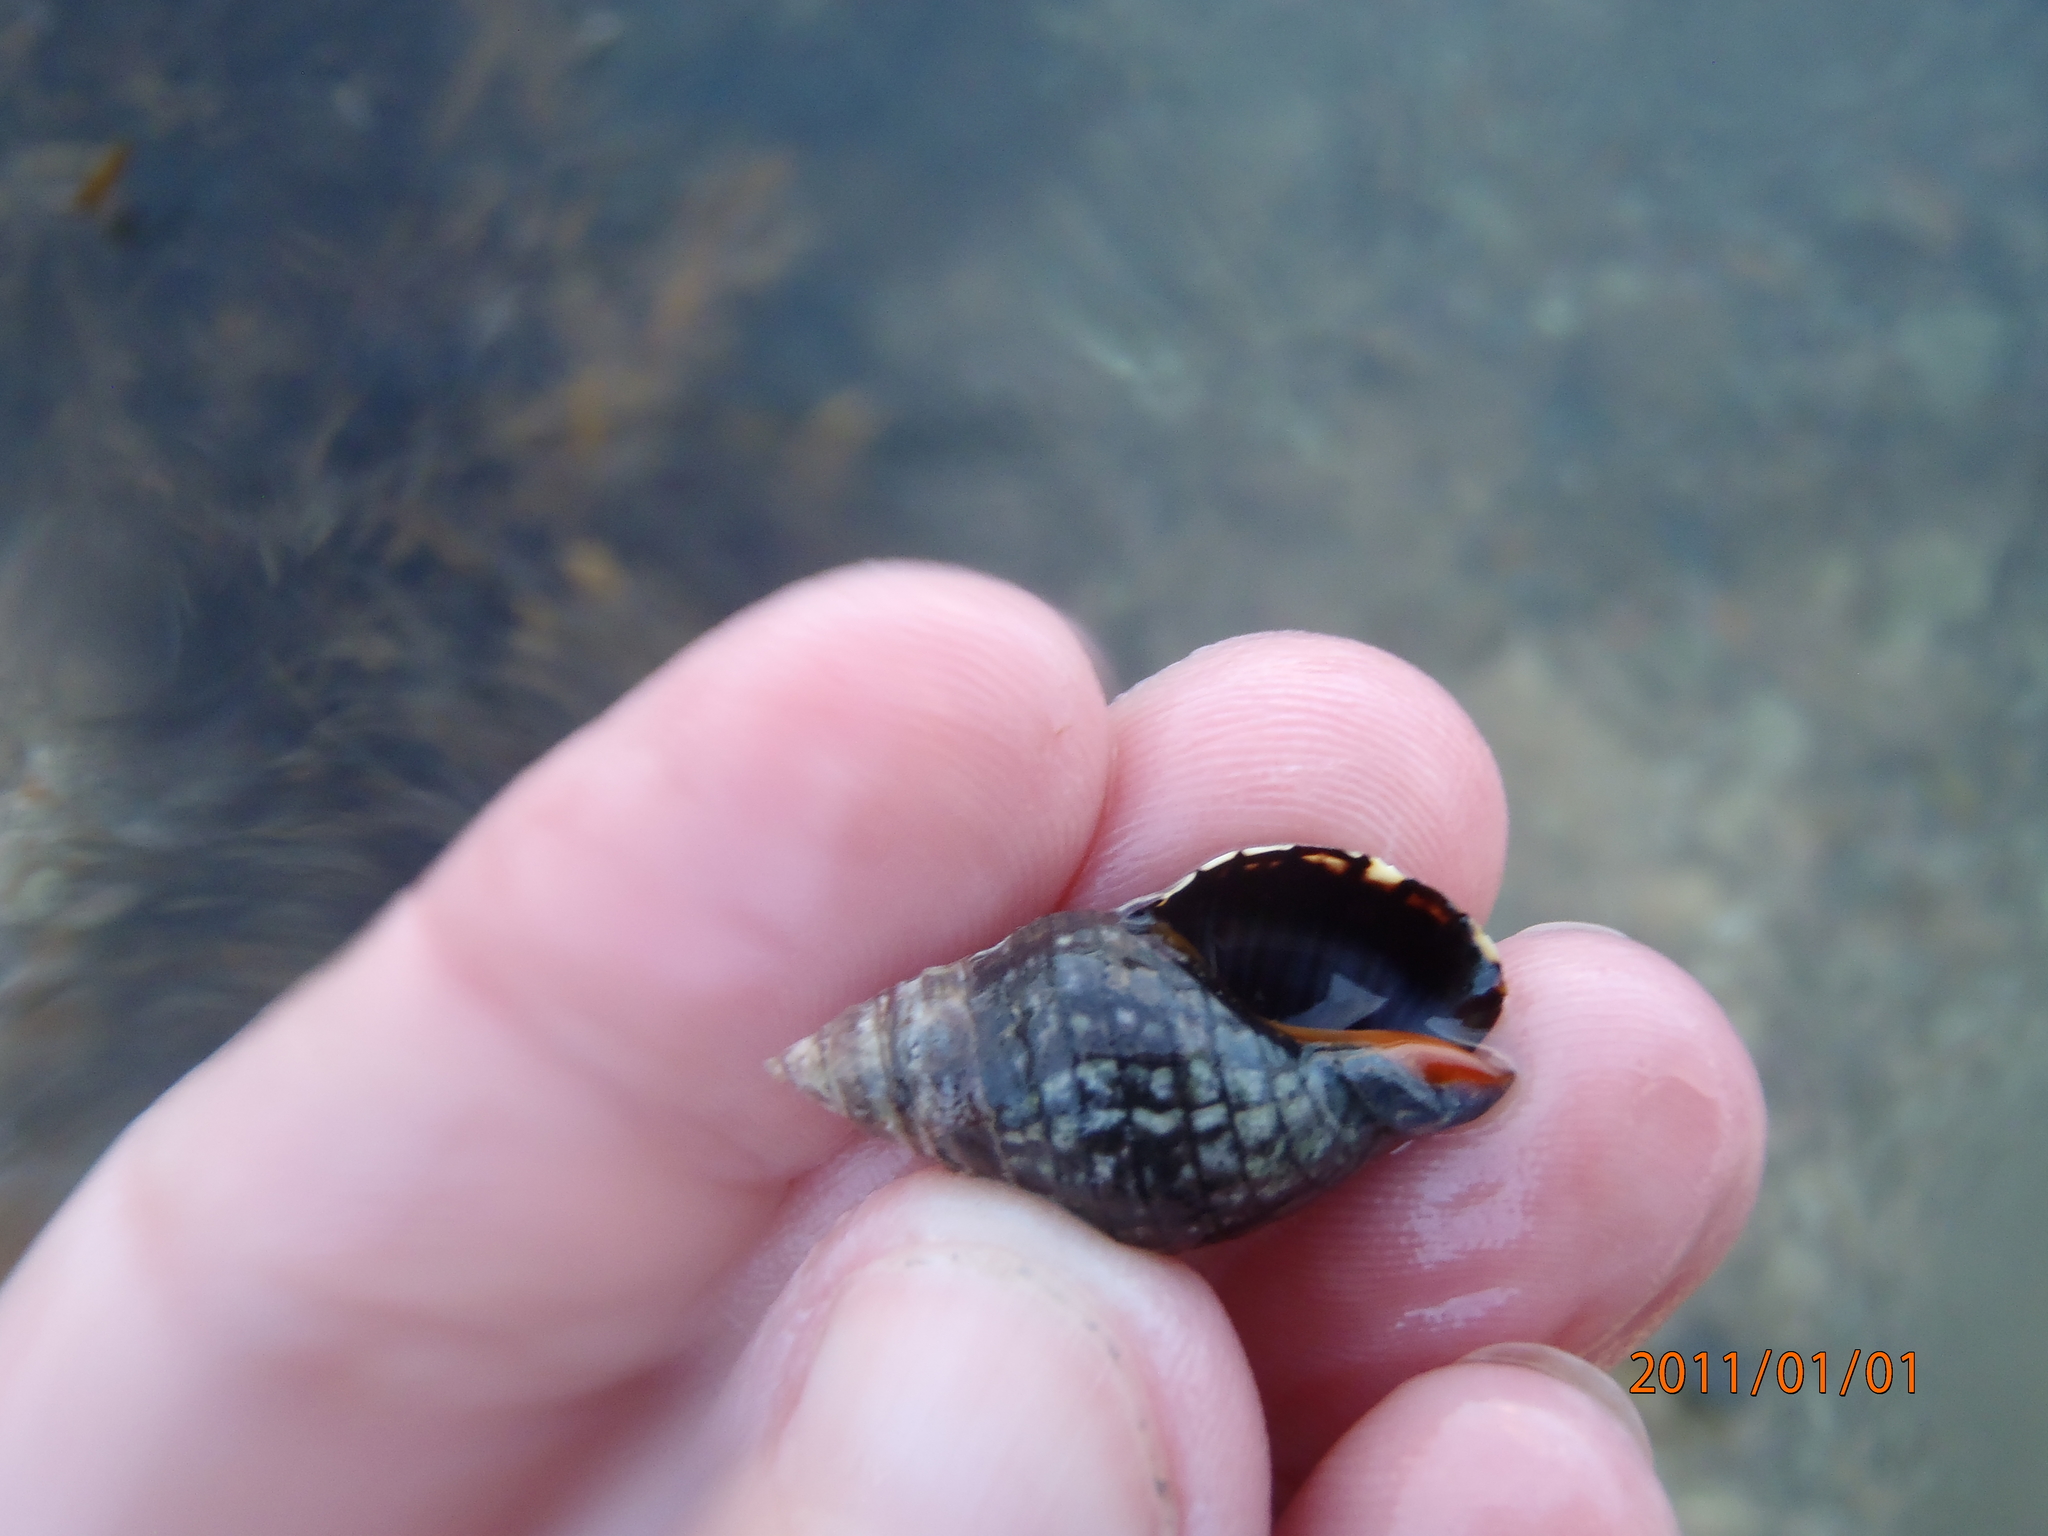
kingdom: Animalia
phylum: Mollusca
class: Gastropoda
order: Neogastropoda
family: Cominellidae
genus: Cominella
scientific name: Cominella virgata
